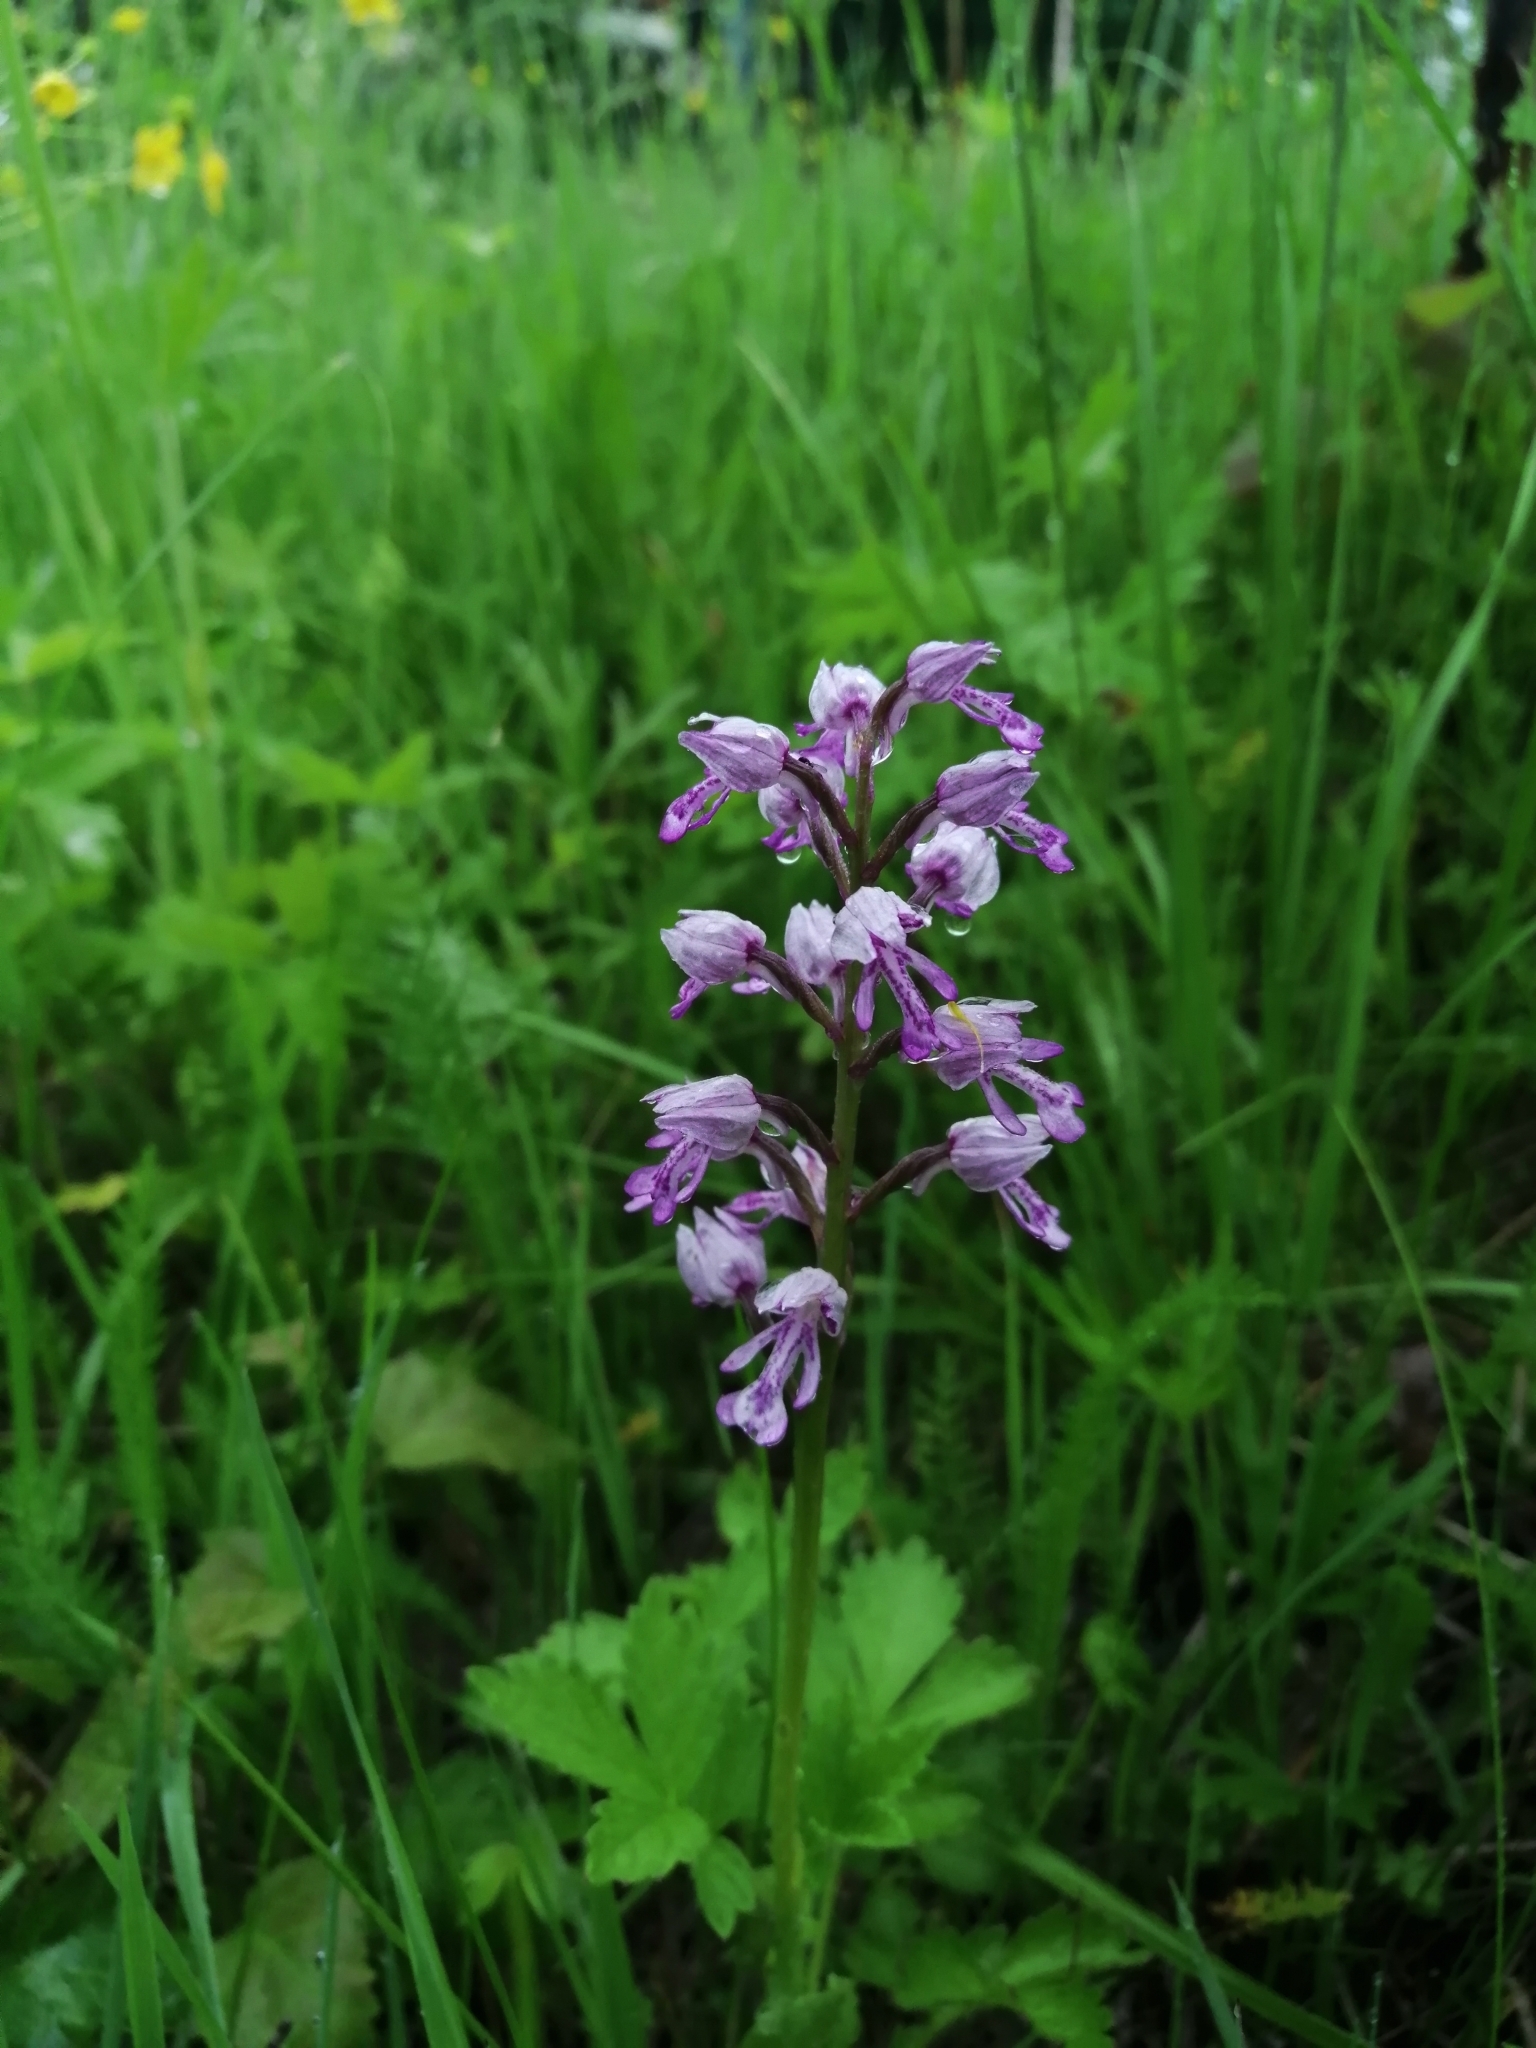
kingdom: Plantae
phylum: Tracheophyta
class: Liliopsida
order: Asparagales
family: Orchidaceae
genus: Orchis
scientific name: Orchis militaris
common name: Military orchid
